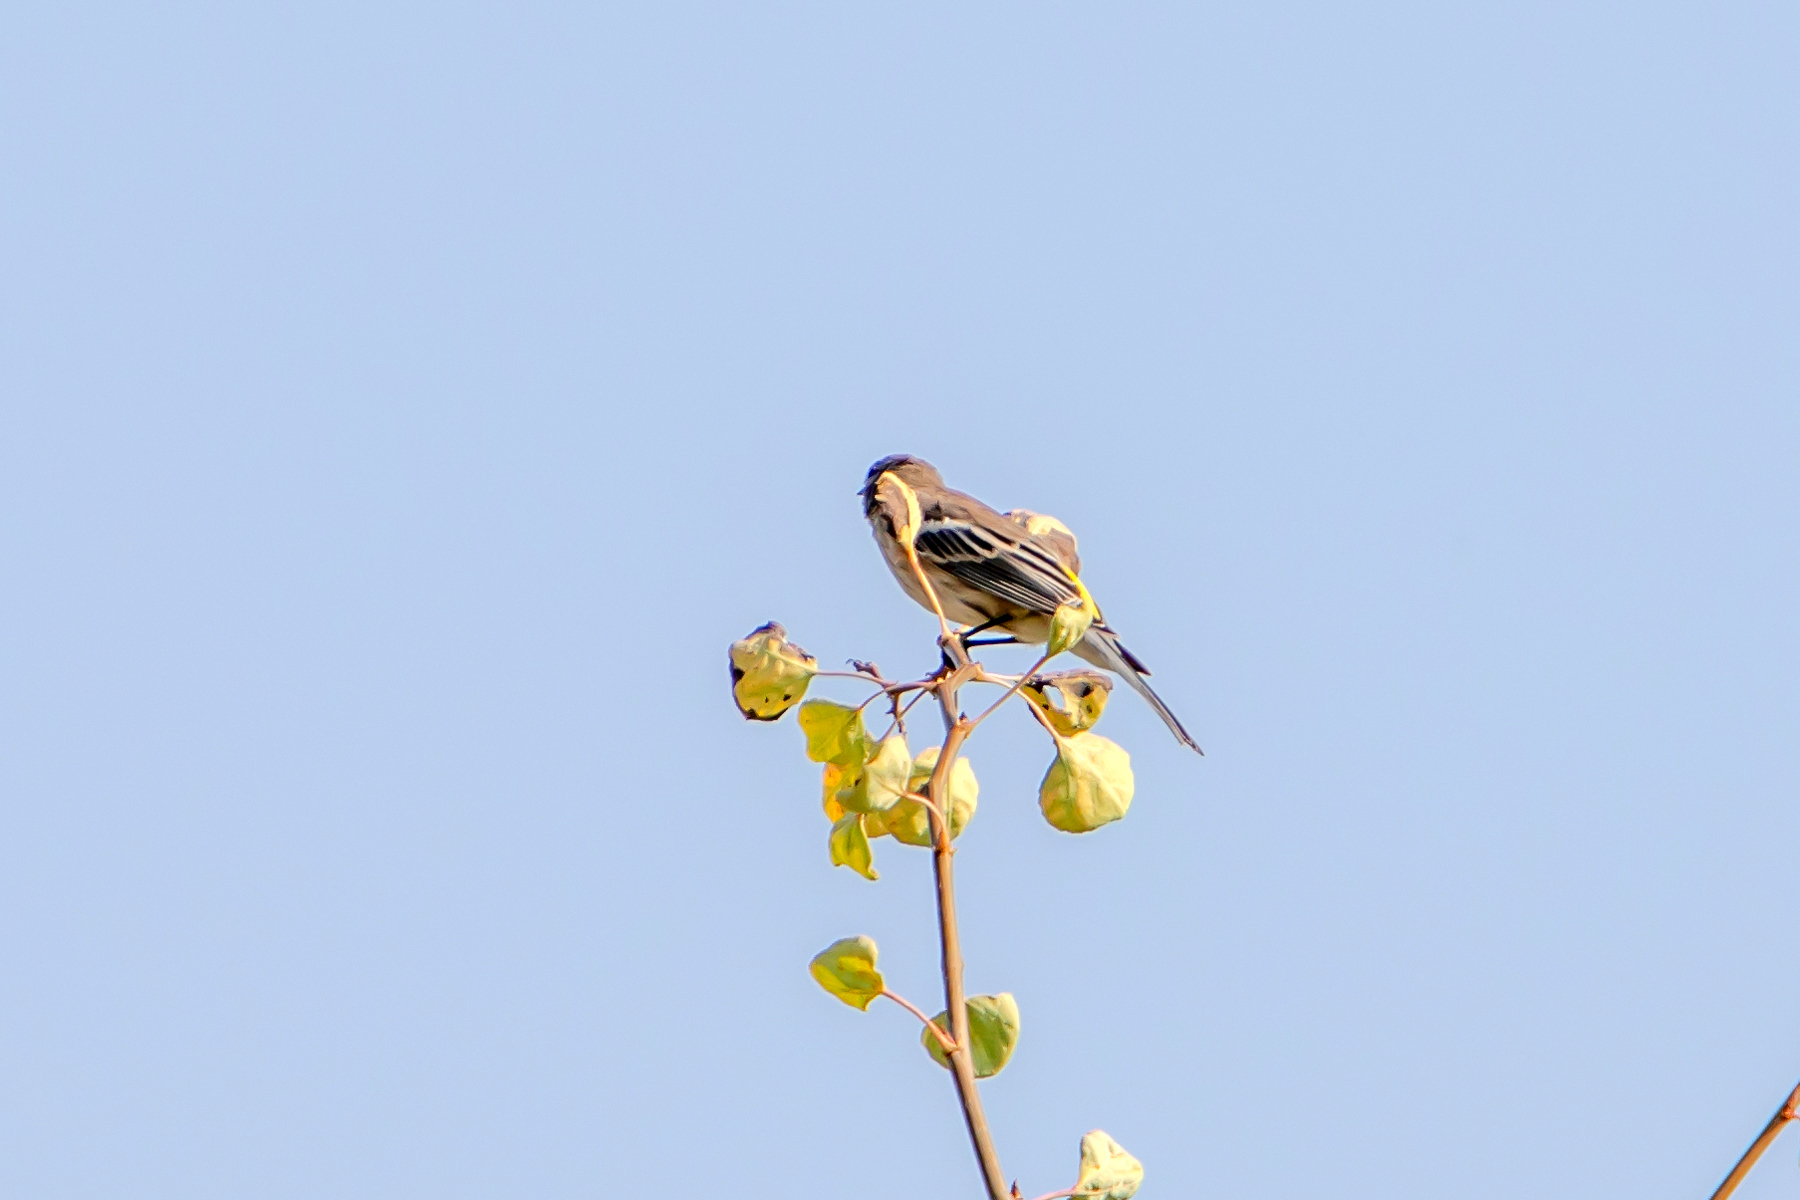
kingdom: Animalia
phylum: Chordata
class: Aves
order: Passeriformes
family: Parulidae
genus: Setophaga
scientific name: Setophaga auduboni
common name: Audubon's warbler
